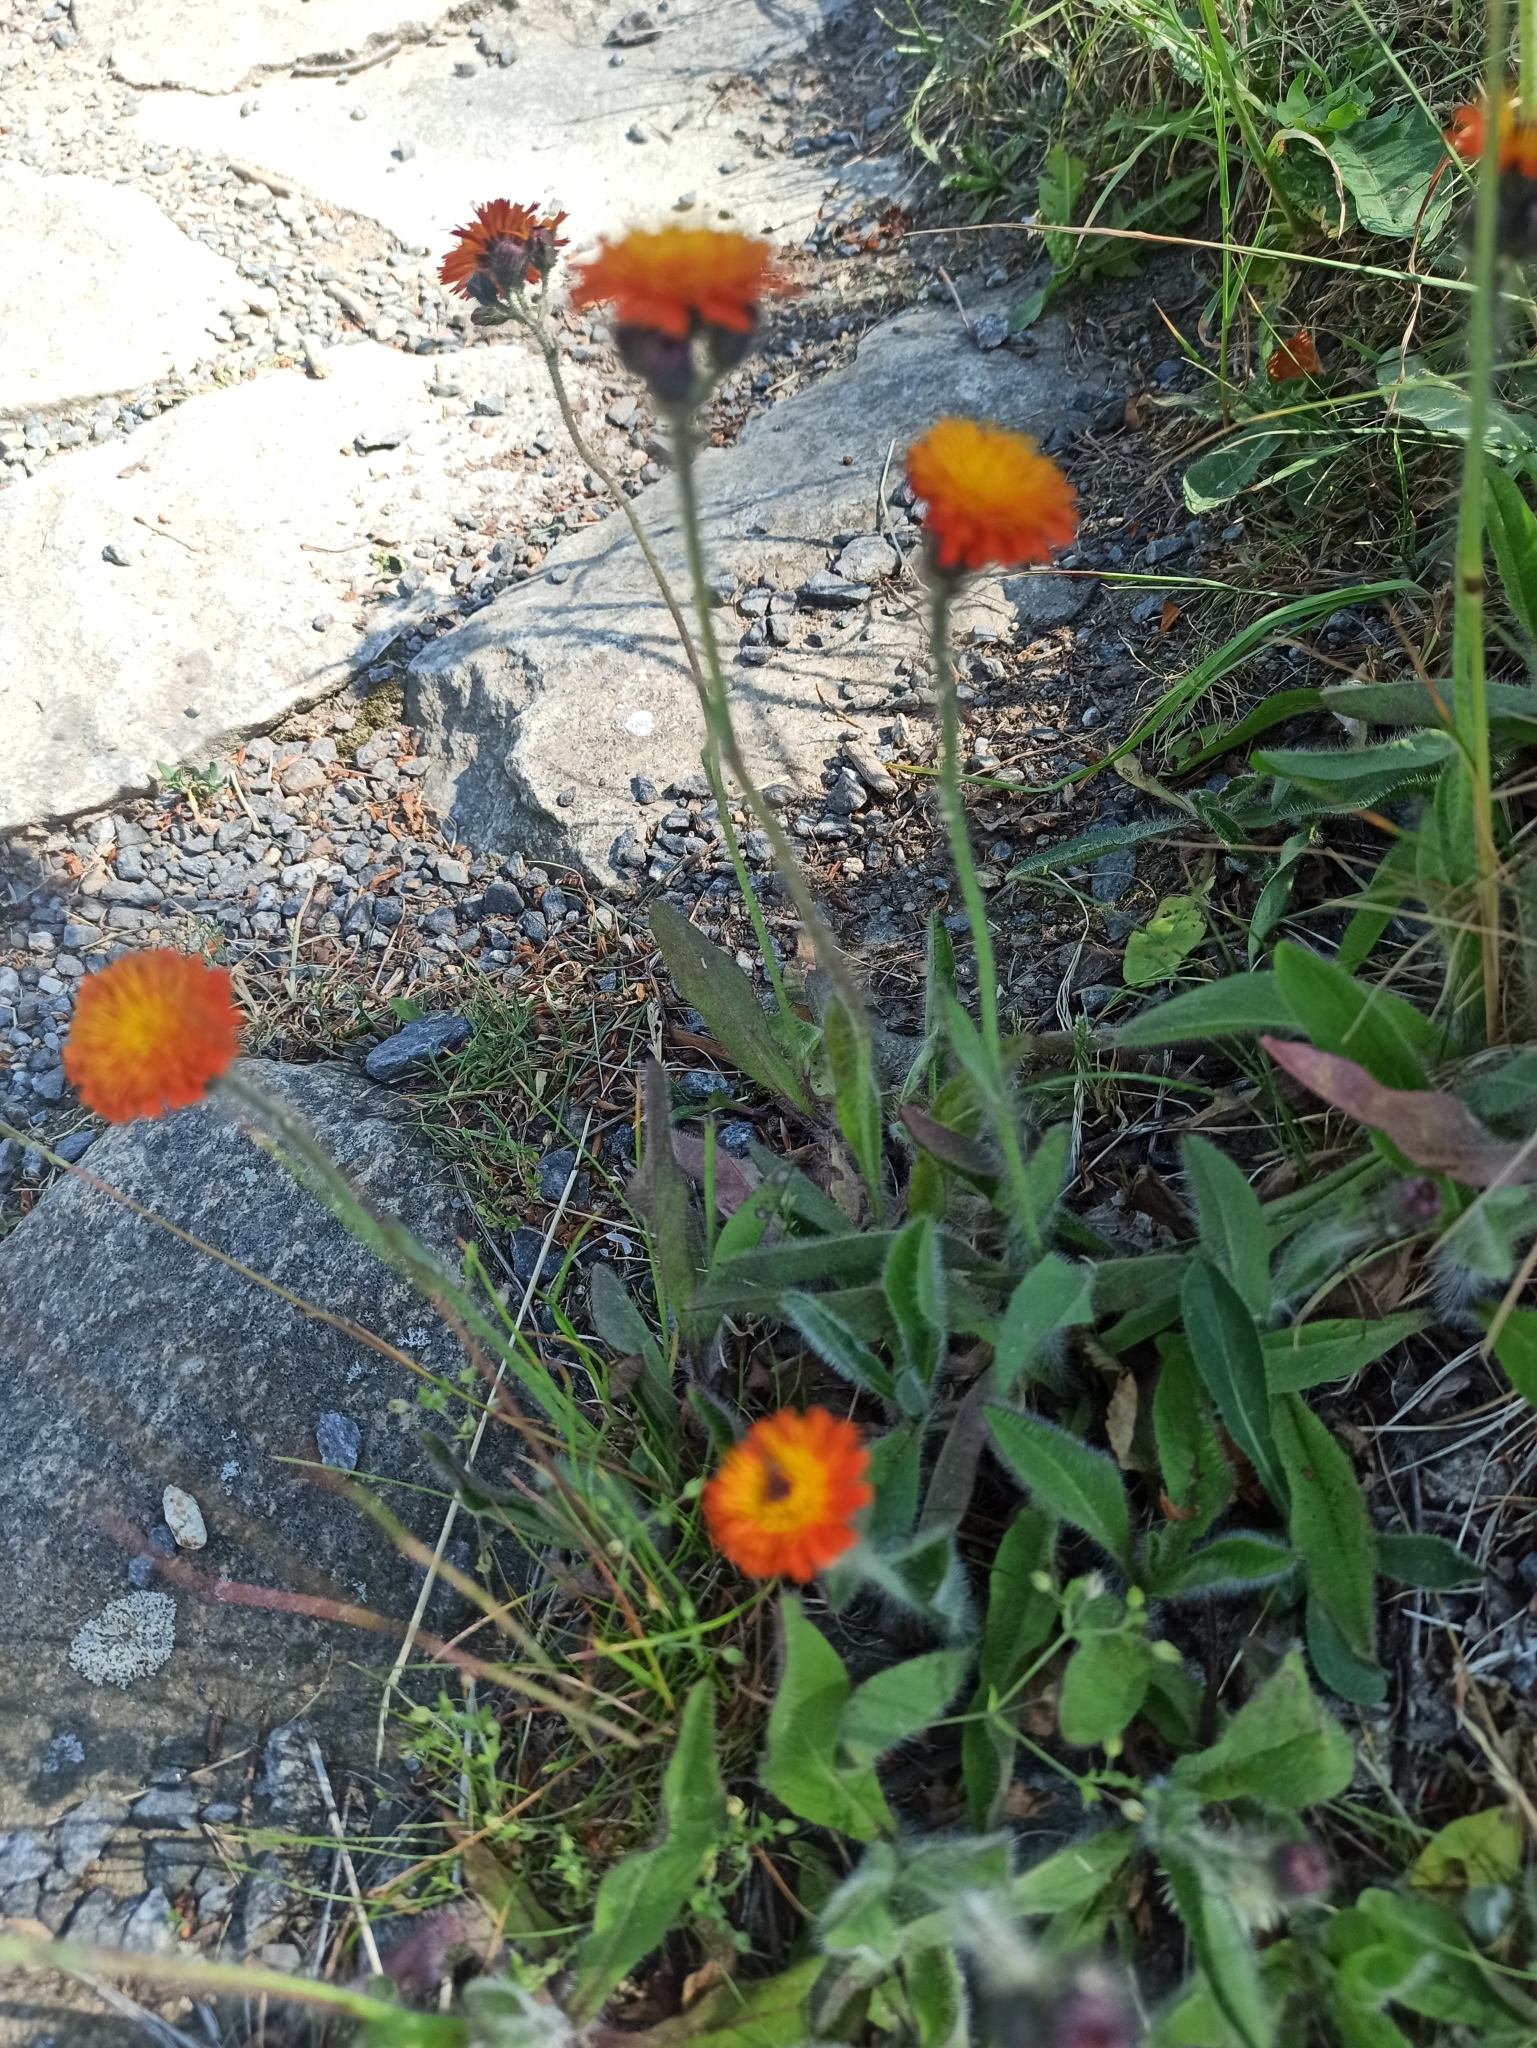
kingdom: Plantae
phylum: Tracheophyta
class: Magnoliopsida
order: Asterales
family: Asteraceae
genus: Pilosella
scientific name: Pilosella aurantiaca
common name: Fox-and-cubs
